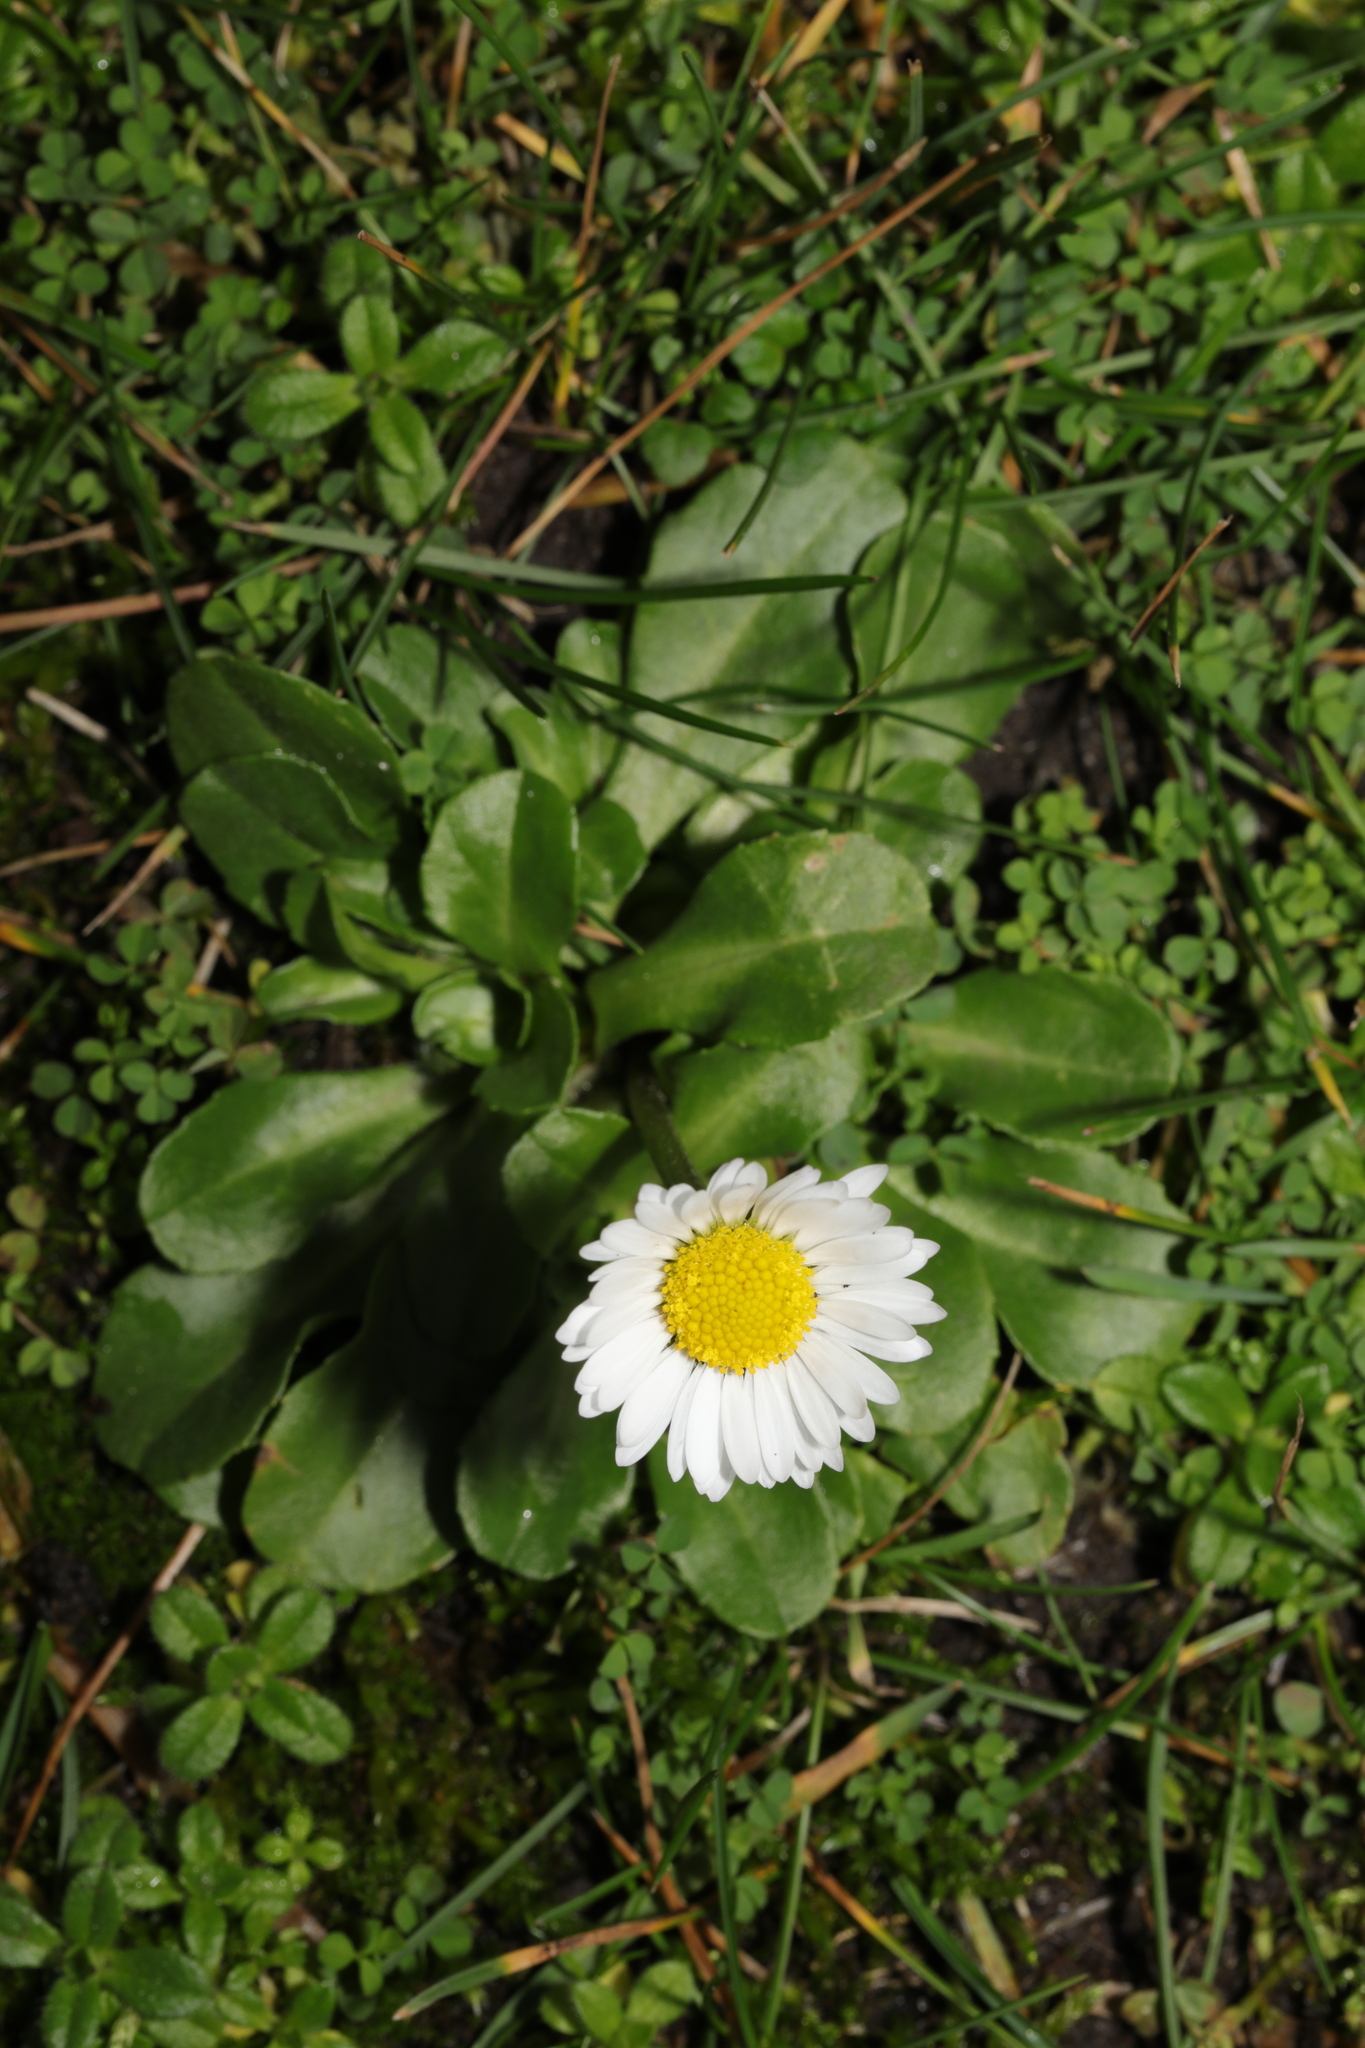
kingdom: Plantae
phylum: Tracheophyta
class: Magnoliopsida
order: Asterales
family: Asteraceae
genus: Bellis
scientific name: Bellis perennis
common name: Lawndaisy
